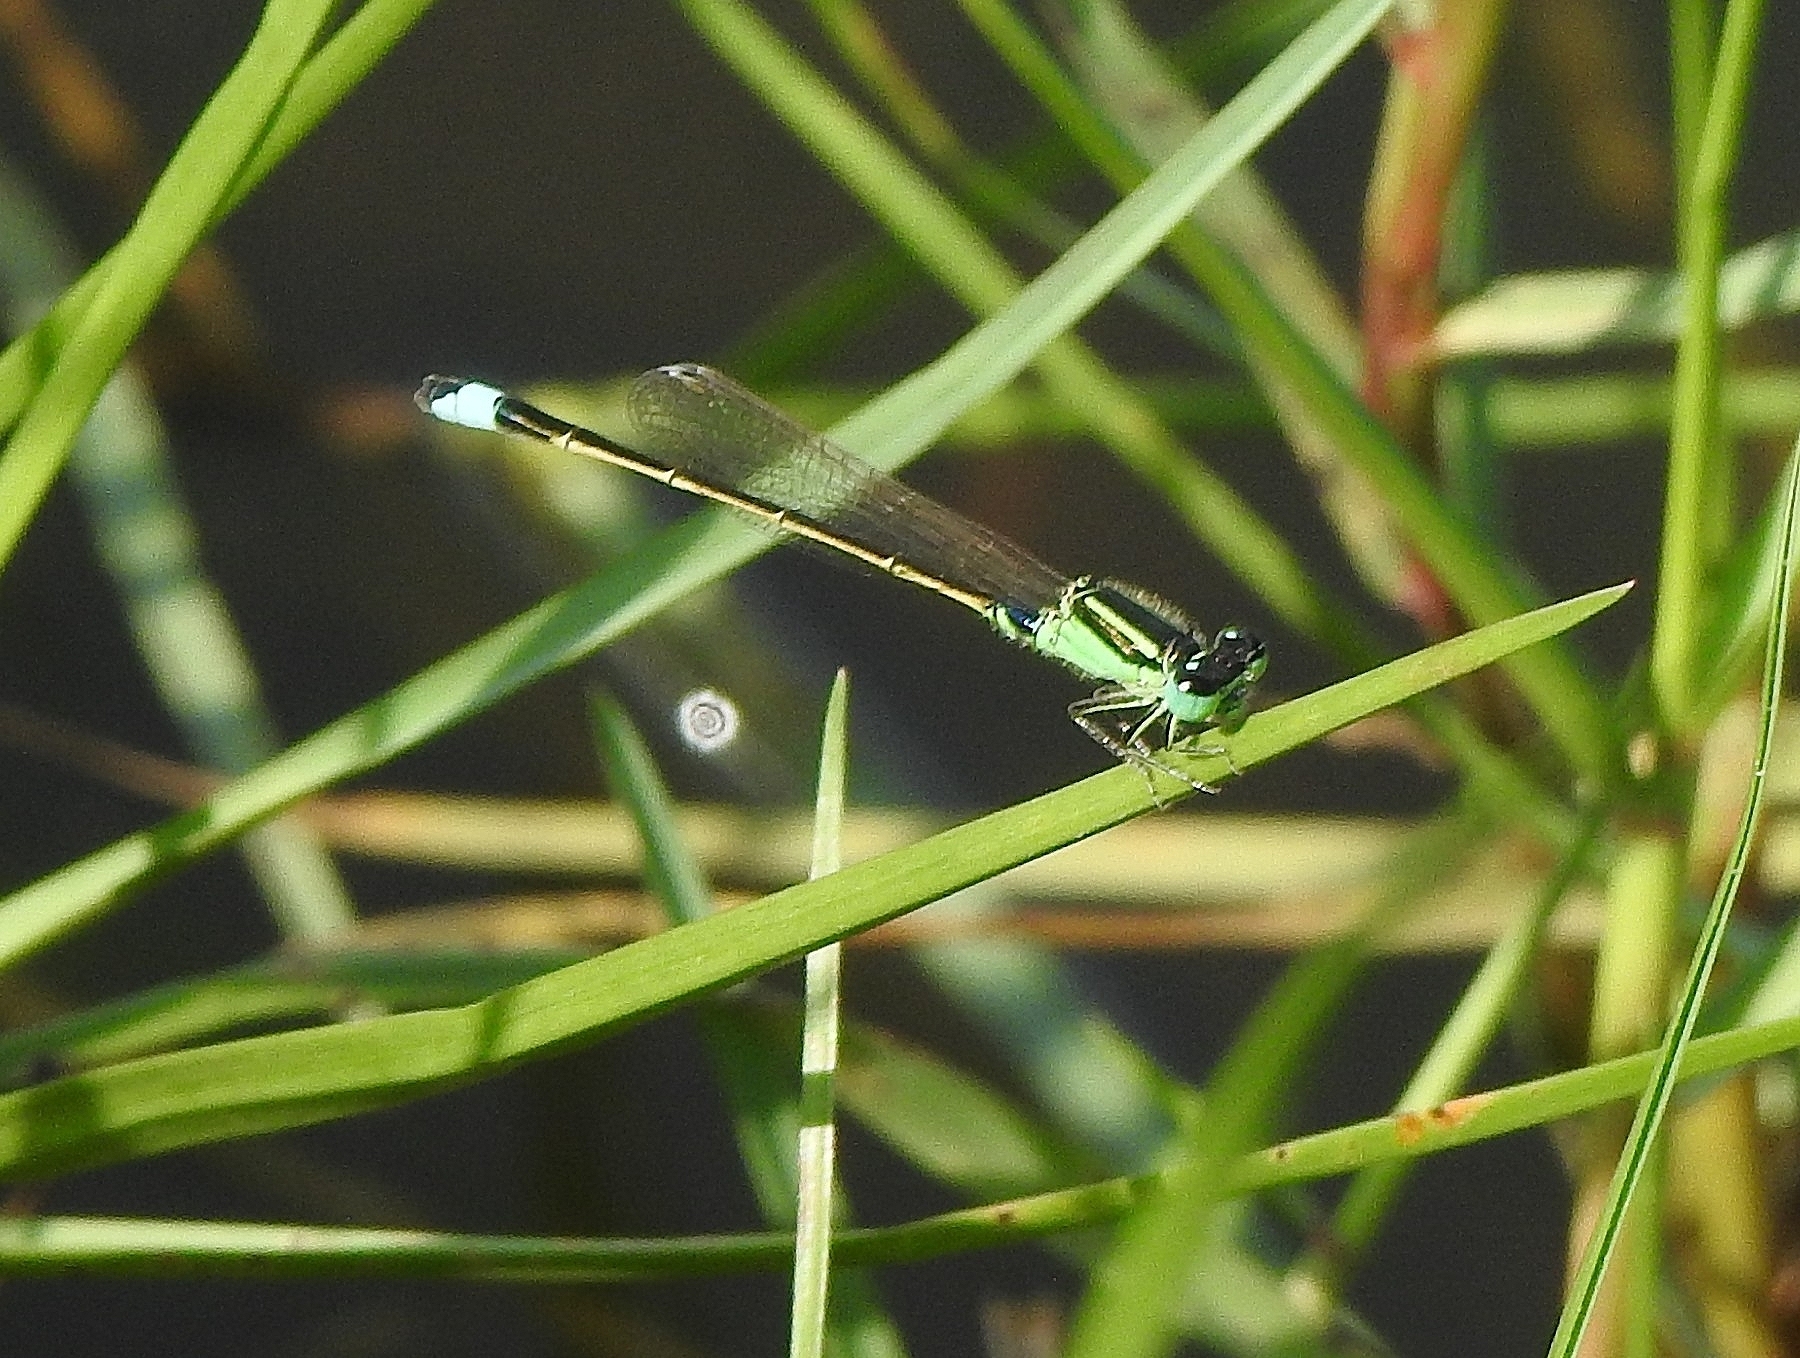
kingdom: Animalia
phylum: Arthropoda
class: Insecta
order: Odonata
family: Coenagrionidae
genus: Ischnura
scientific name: Ischnura senegalensis
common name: Tropical bluetail
